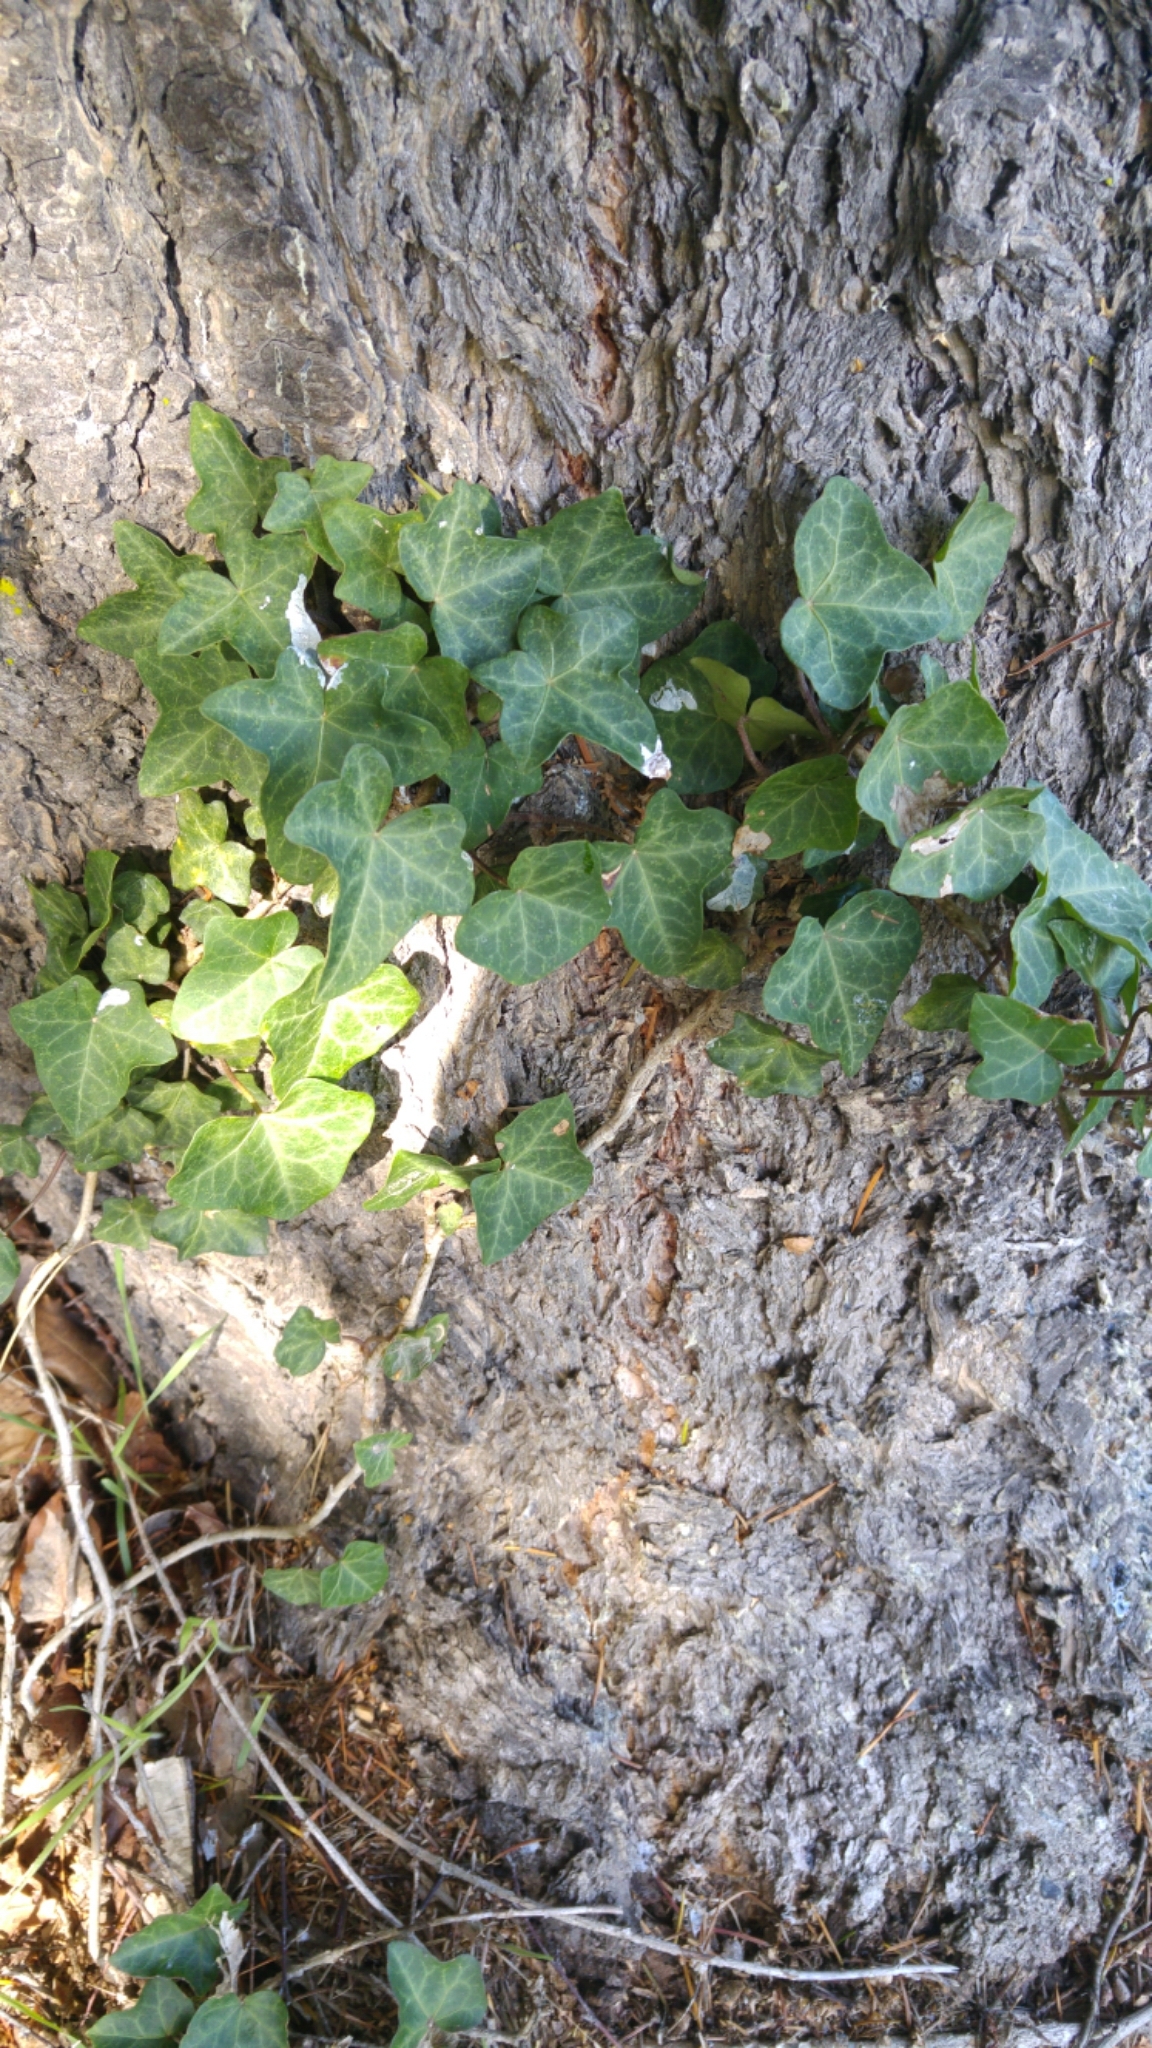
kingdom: Plantae
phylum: Tracheophyta
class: Magnoliopsida
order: Apiales
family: Araliaceae
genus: Hedera
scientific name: Hedera helix
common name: Ivy
